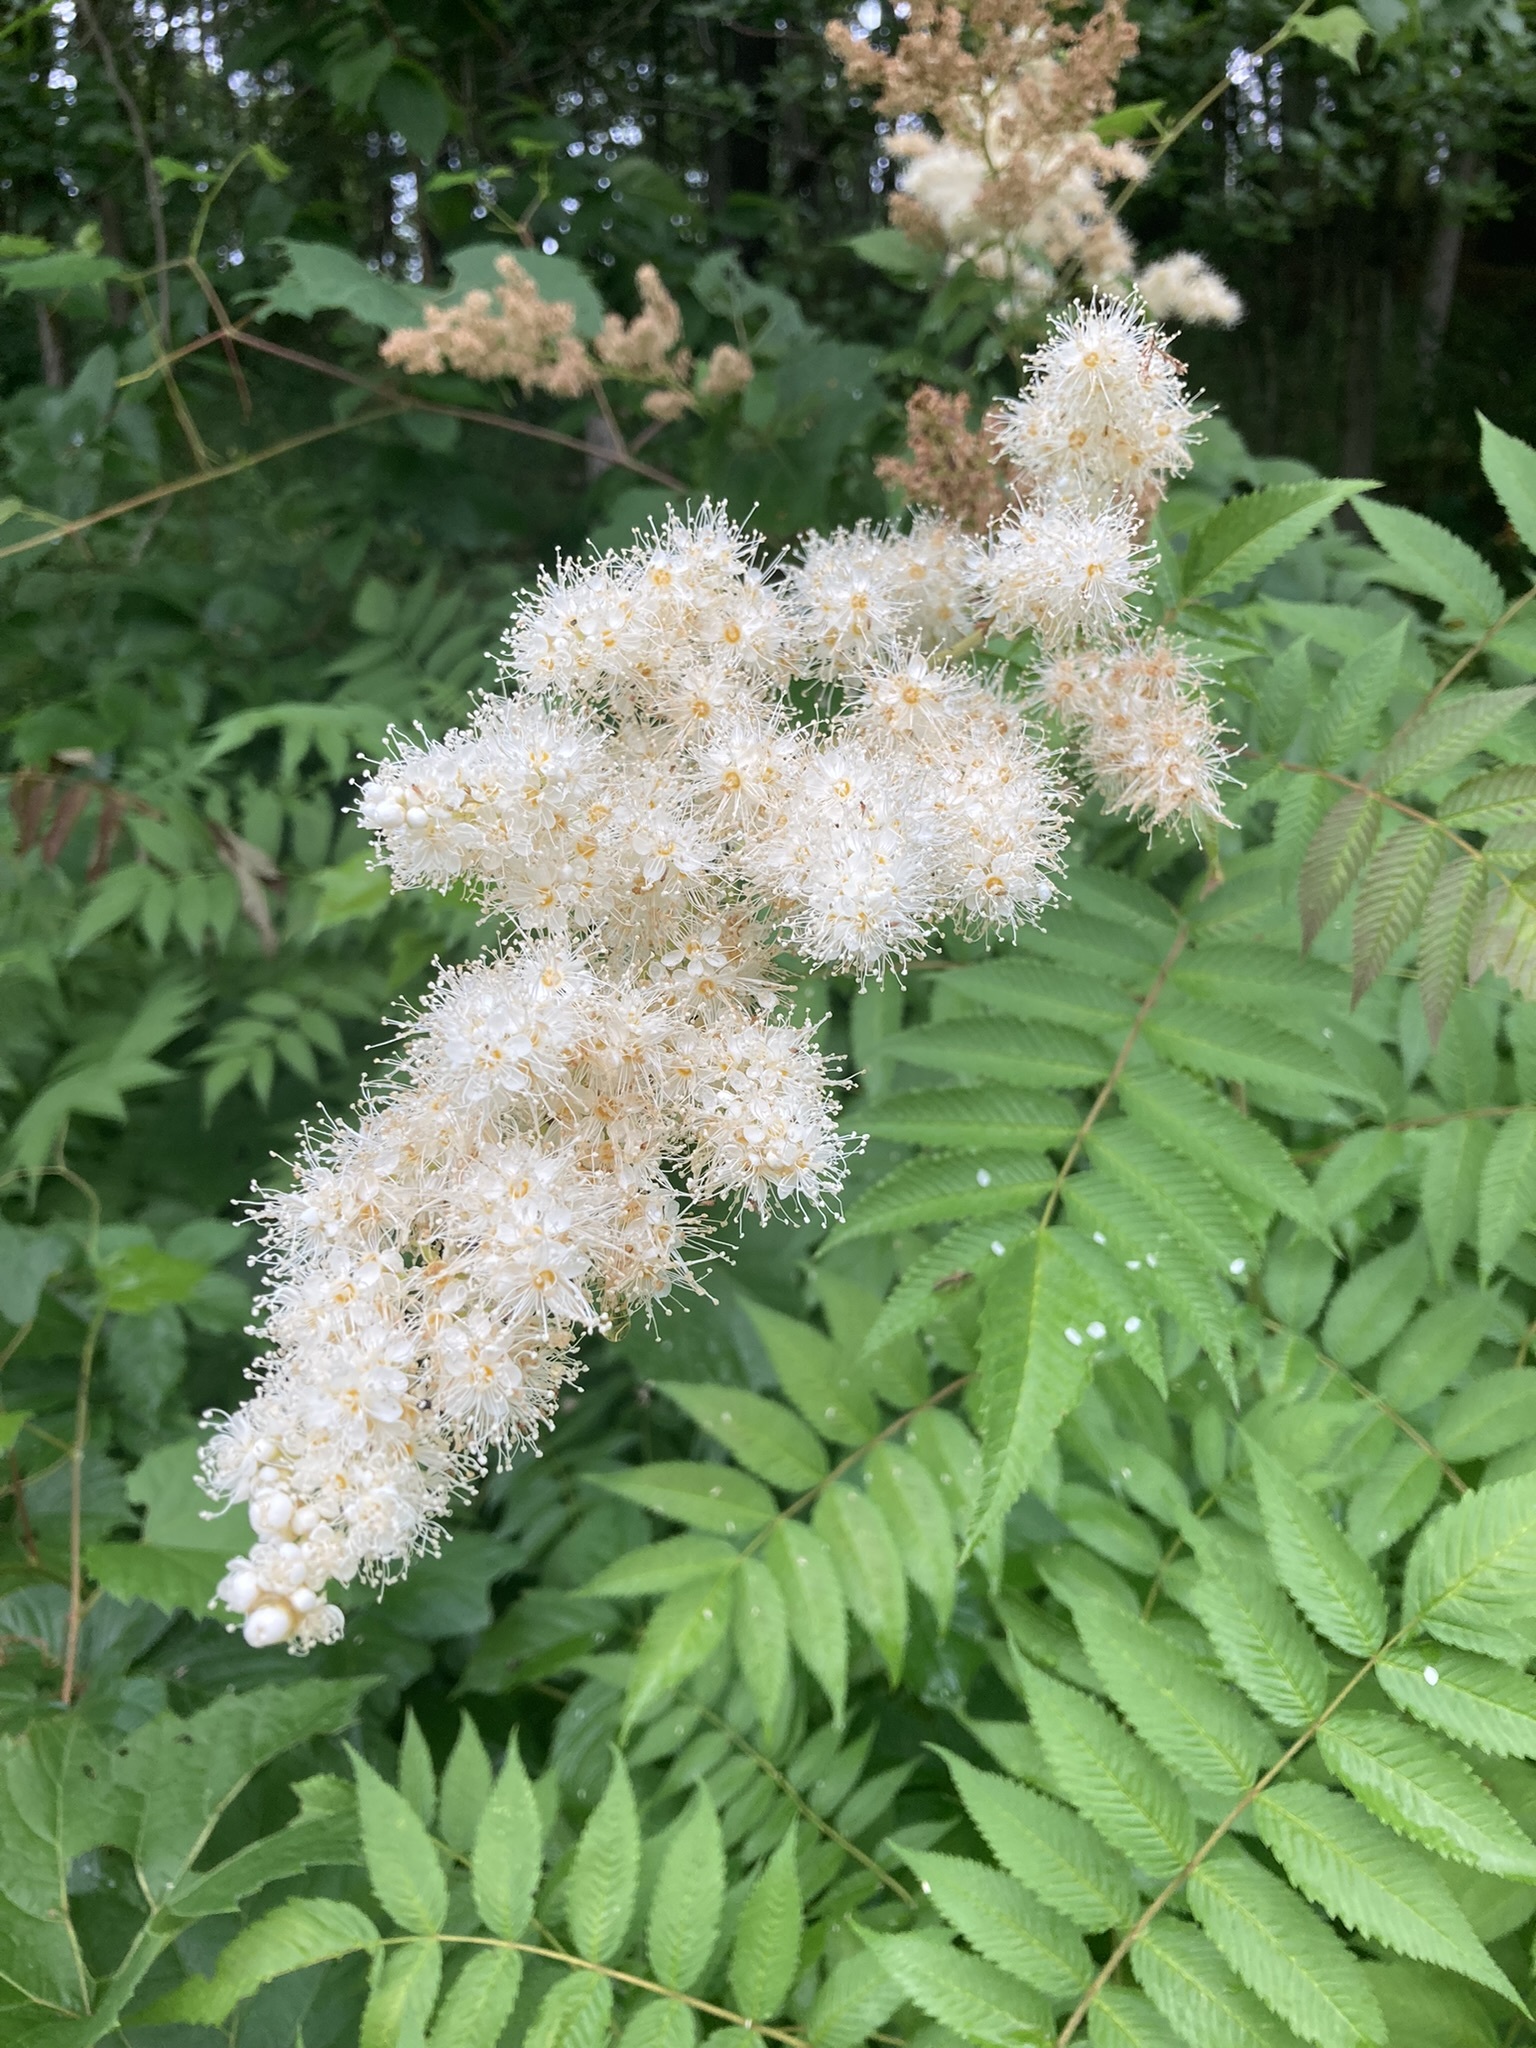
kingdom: Plantae
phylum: Tracheophyta
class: Magnoliopsida
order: Rosales
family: Rosaceae
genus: Sorbaria
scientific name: Sorbaria sorbifolia
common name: False spiraea
